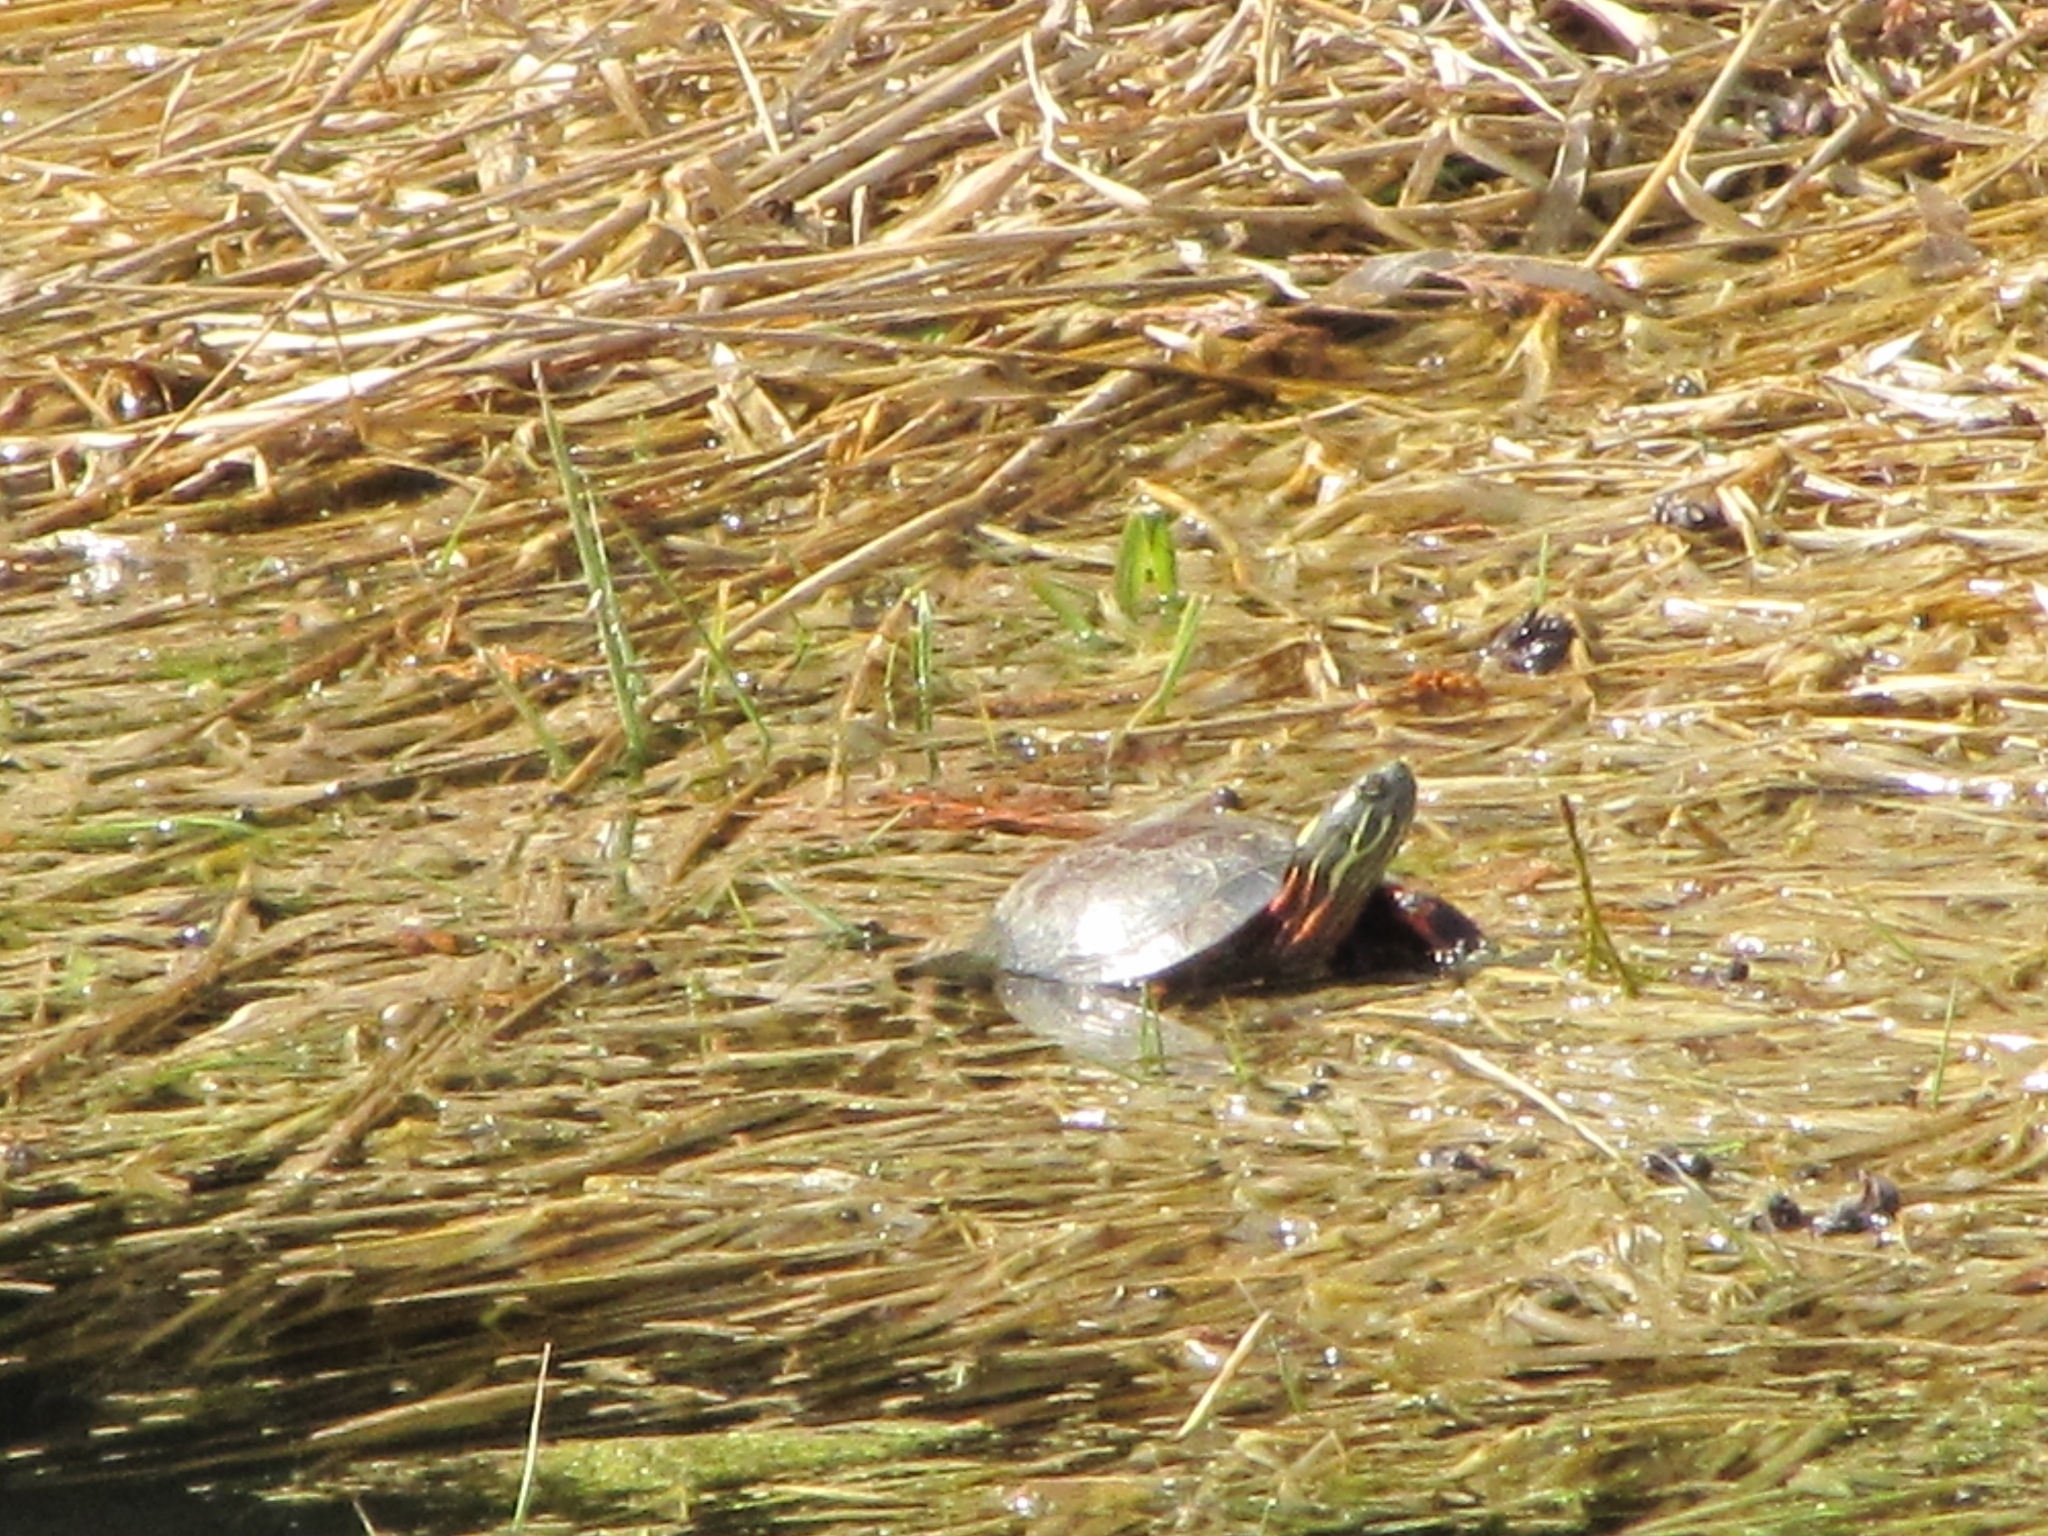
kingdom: Animalia
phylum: Chordata
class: Testudines
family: Emydidae
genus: Chrysemys
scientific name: Chrysemys picta
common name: Painted turtle
